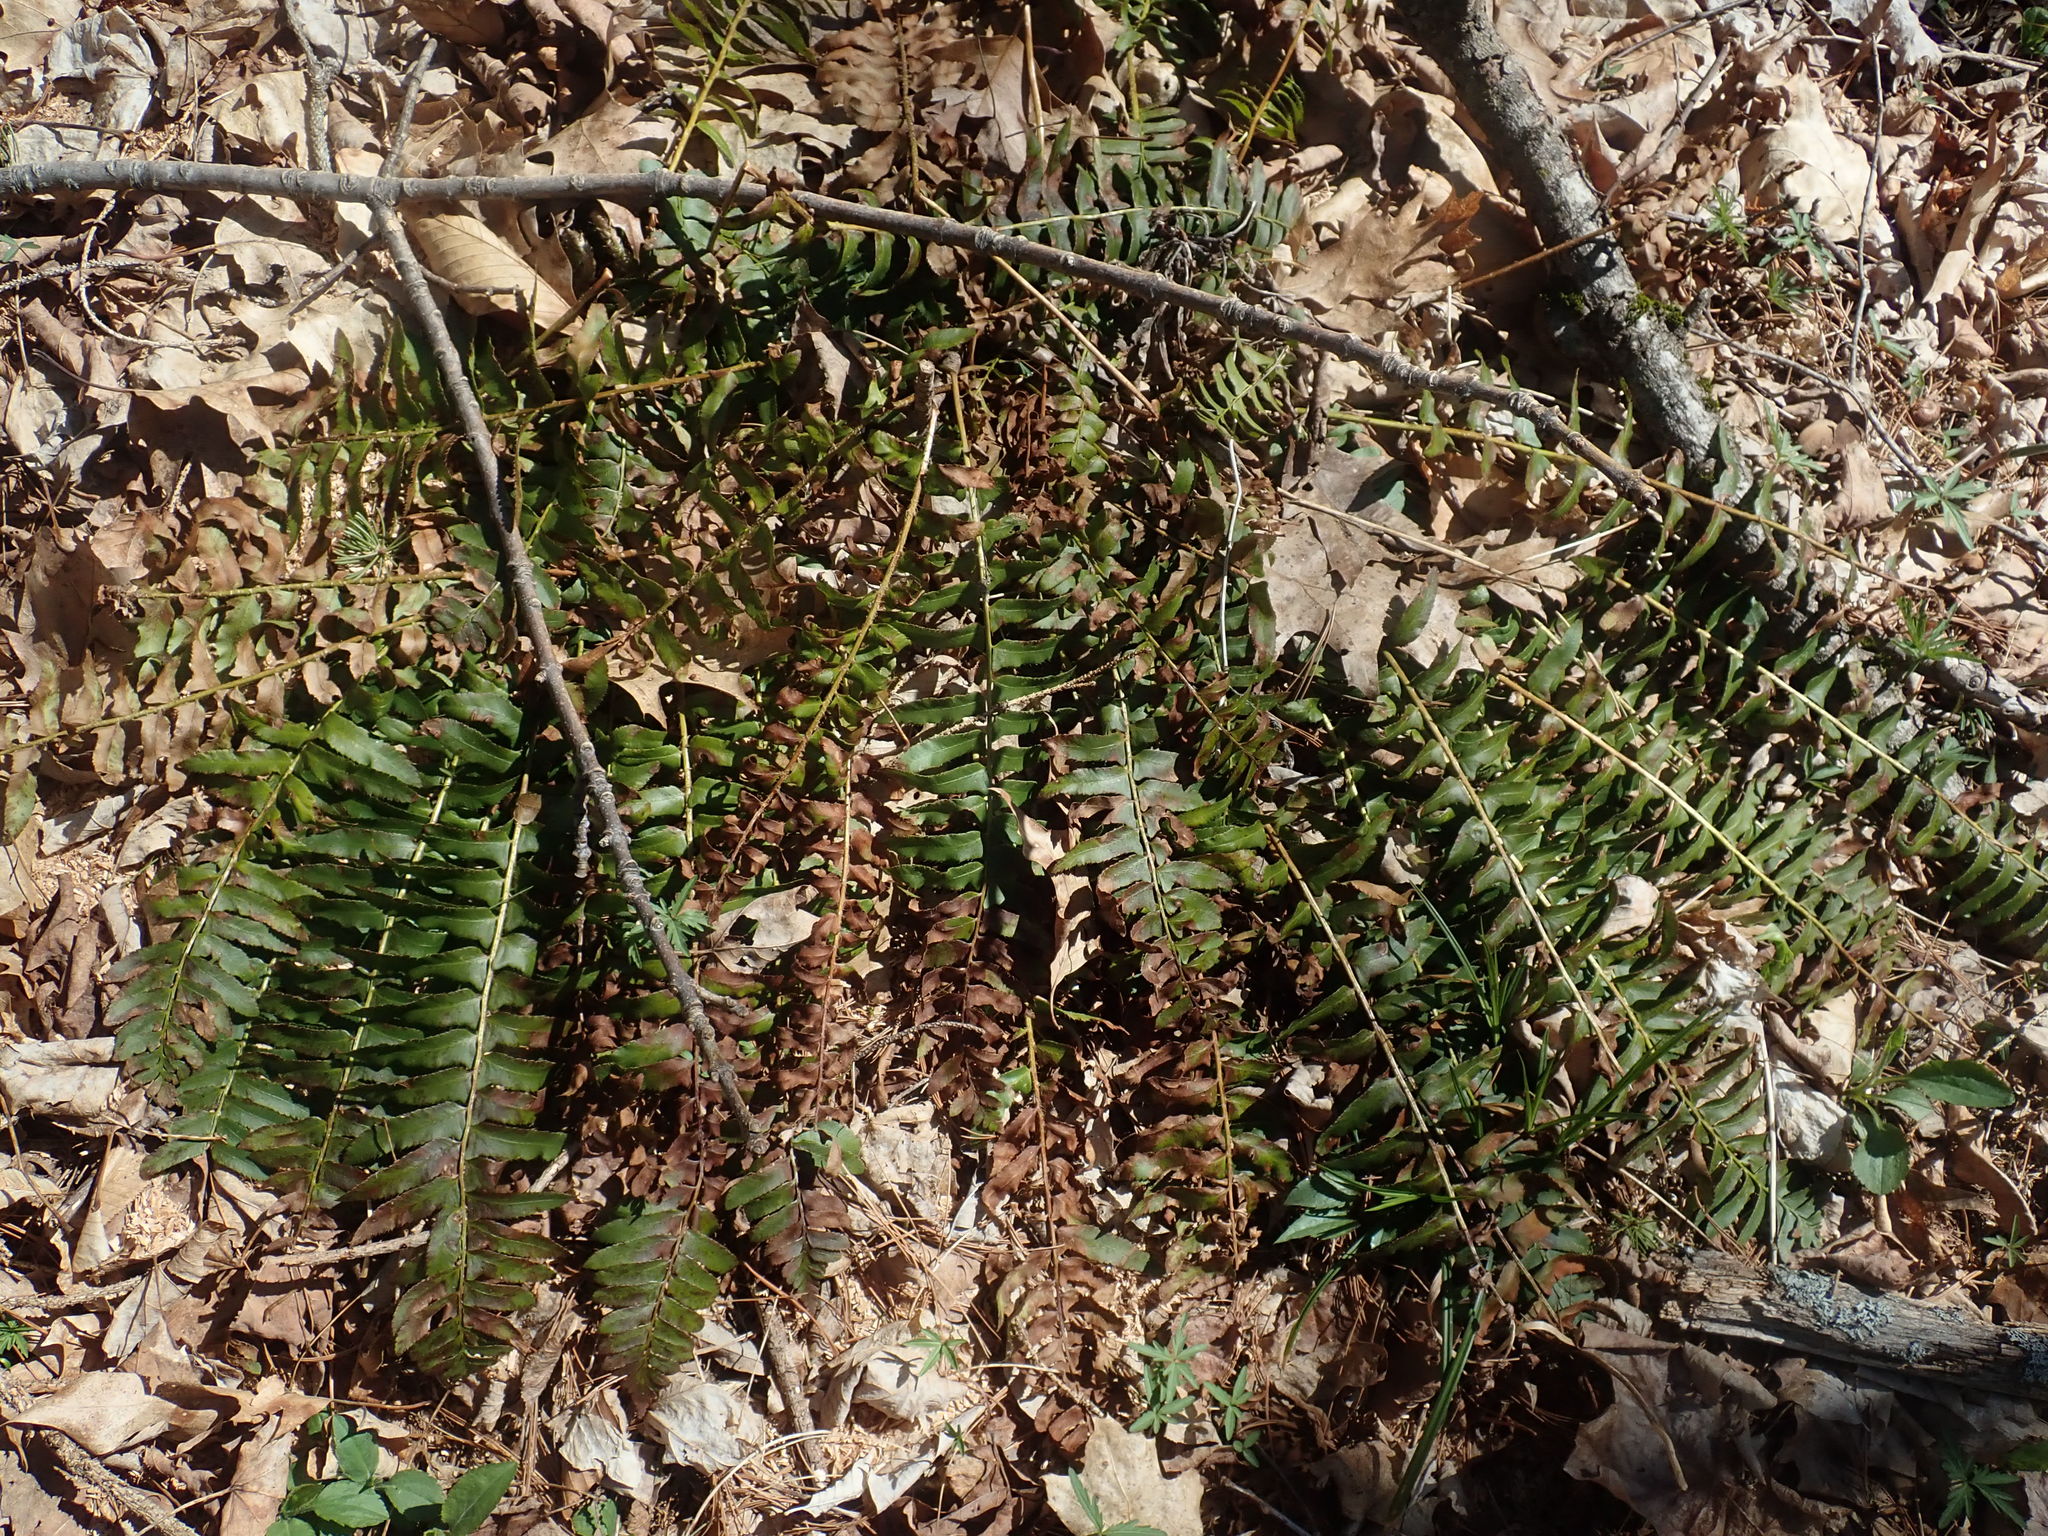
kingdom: Plantae
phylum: Tracheophyta
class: Polypodiopsida
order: Polypodiales
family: Dryopteridaceae
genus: Polystichum
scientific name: Polystichum acrostichoides
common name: Christmas fern
